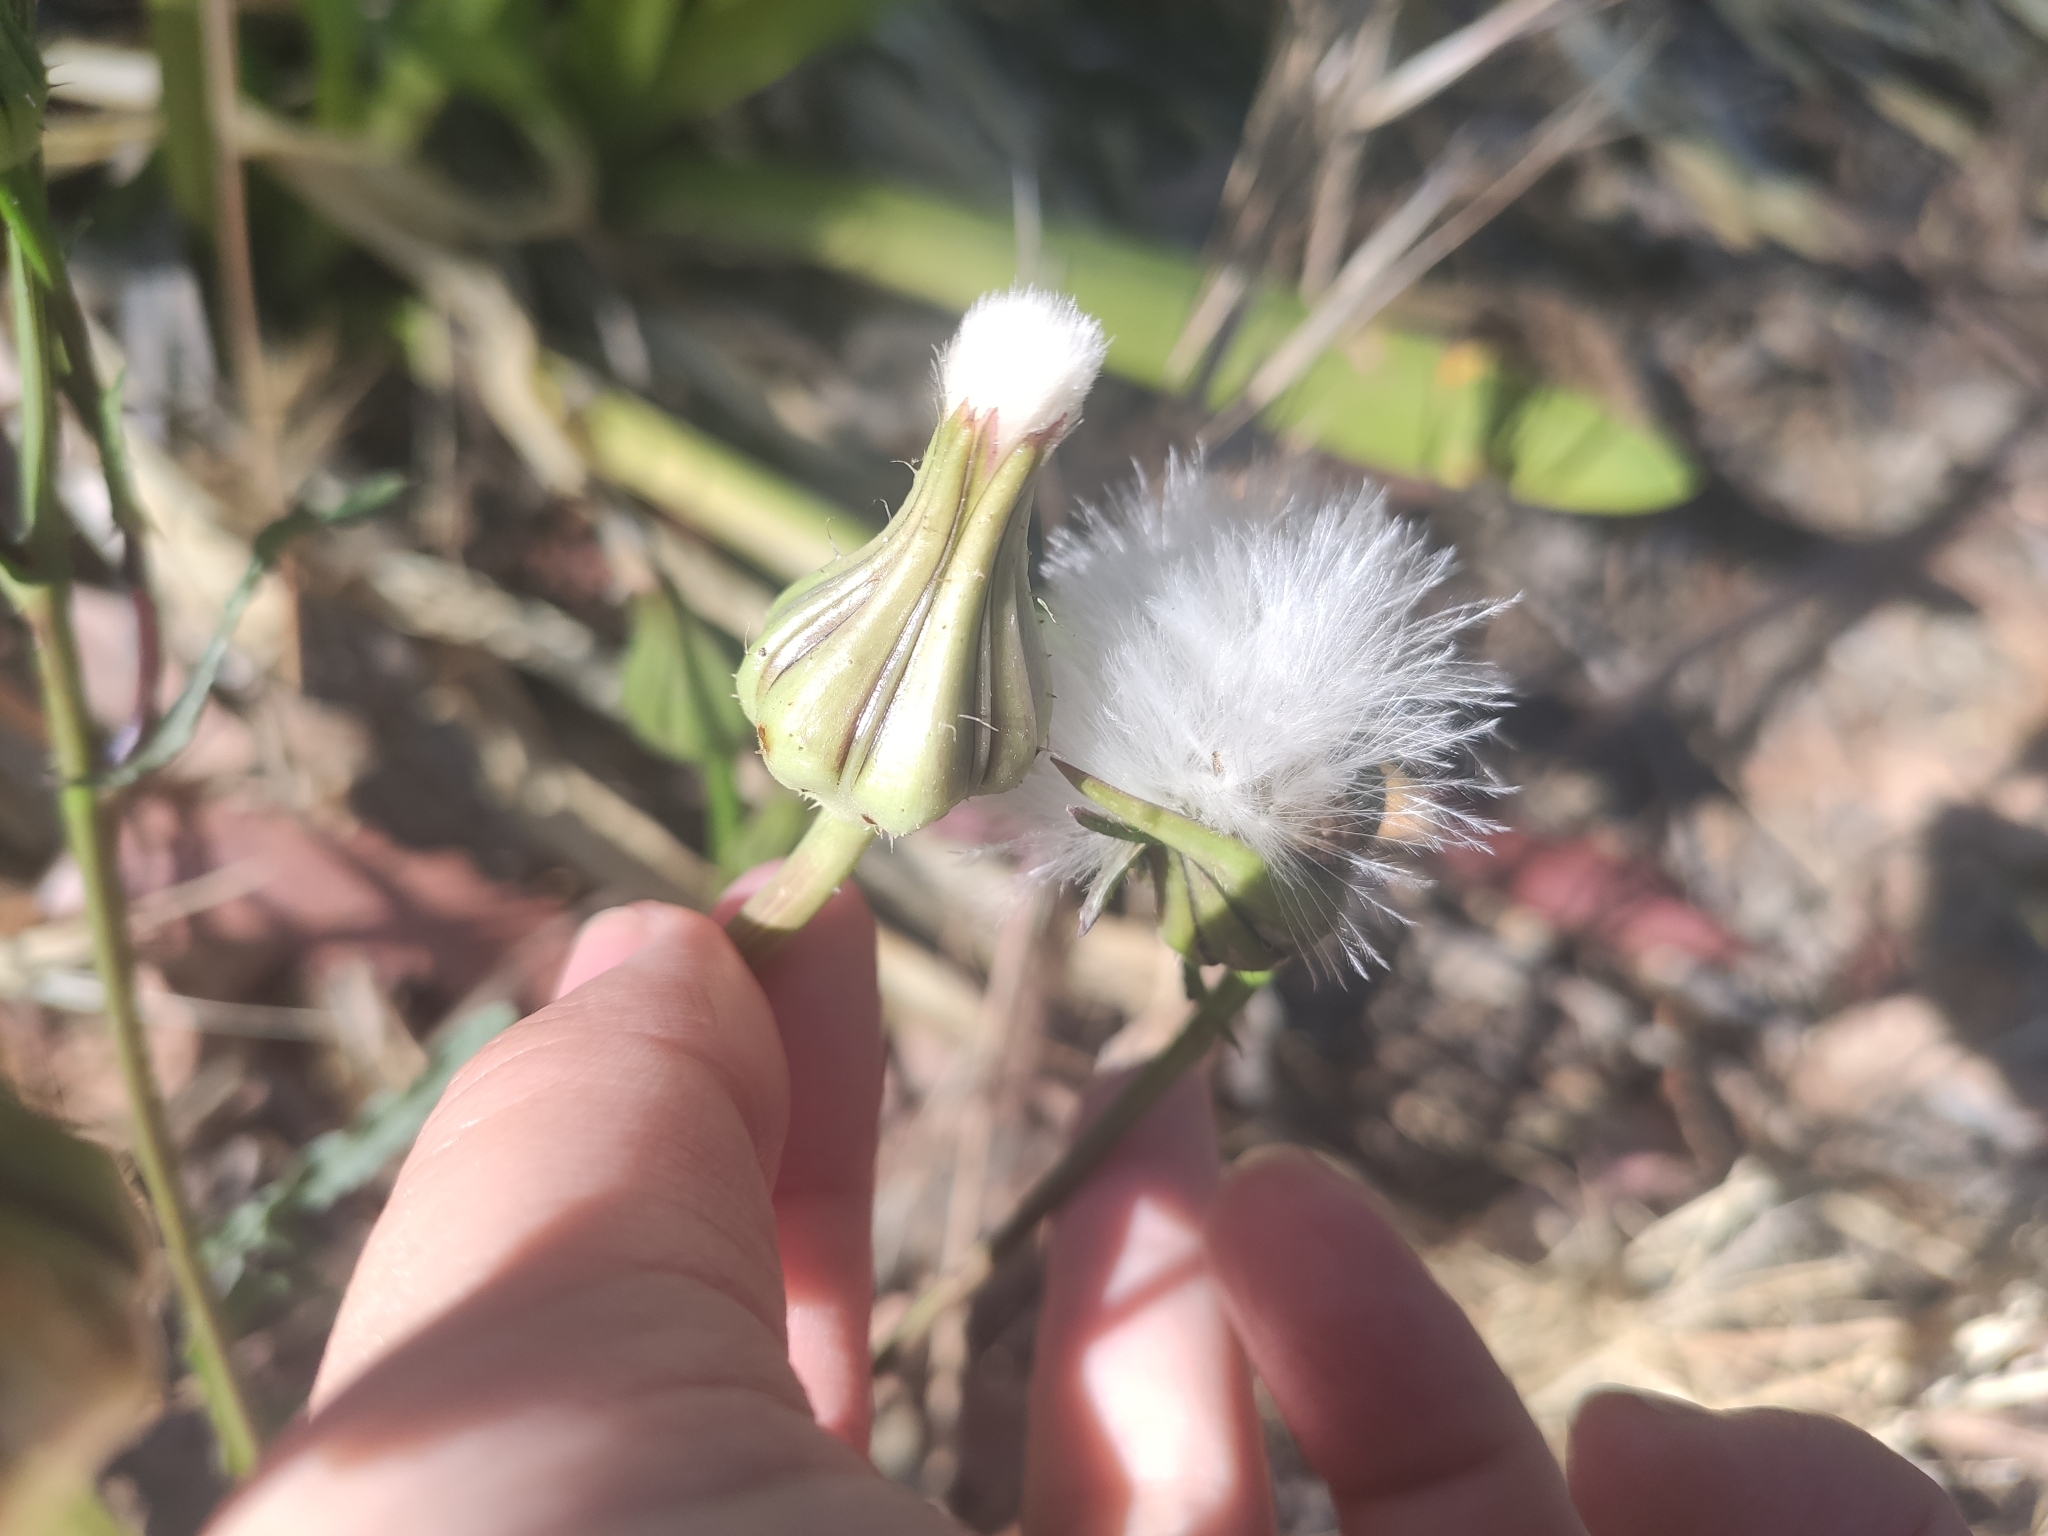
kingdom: Plantae
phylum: Tracheophyta
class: Magnoliopsida
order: Asterales
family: Asteraceae
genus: Urospermum
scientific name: Urospermum picroides
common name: False hawkbit
